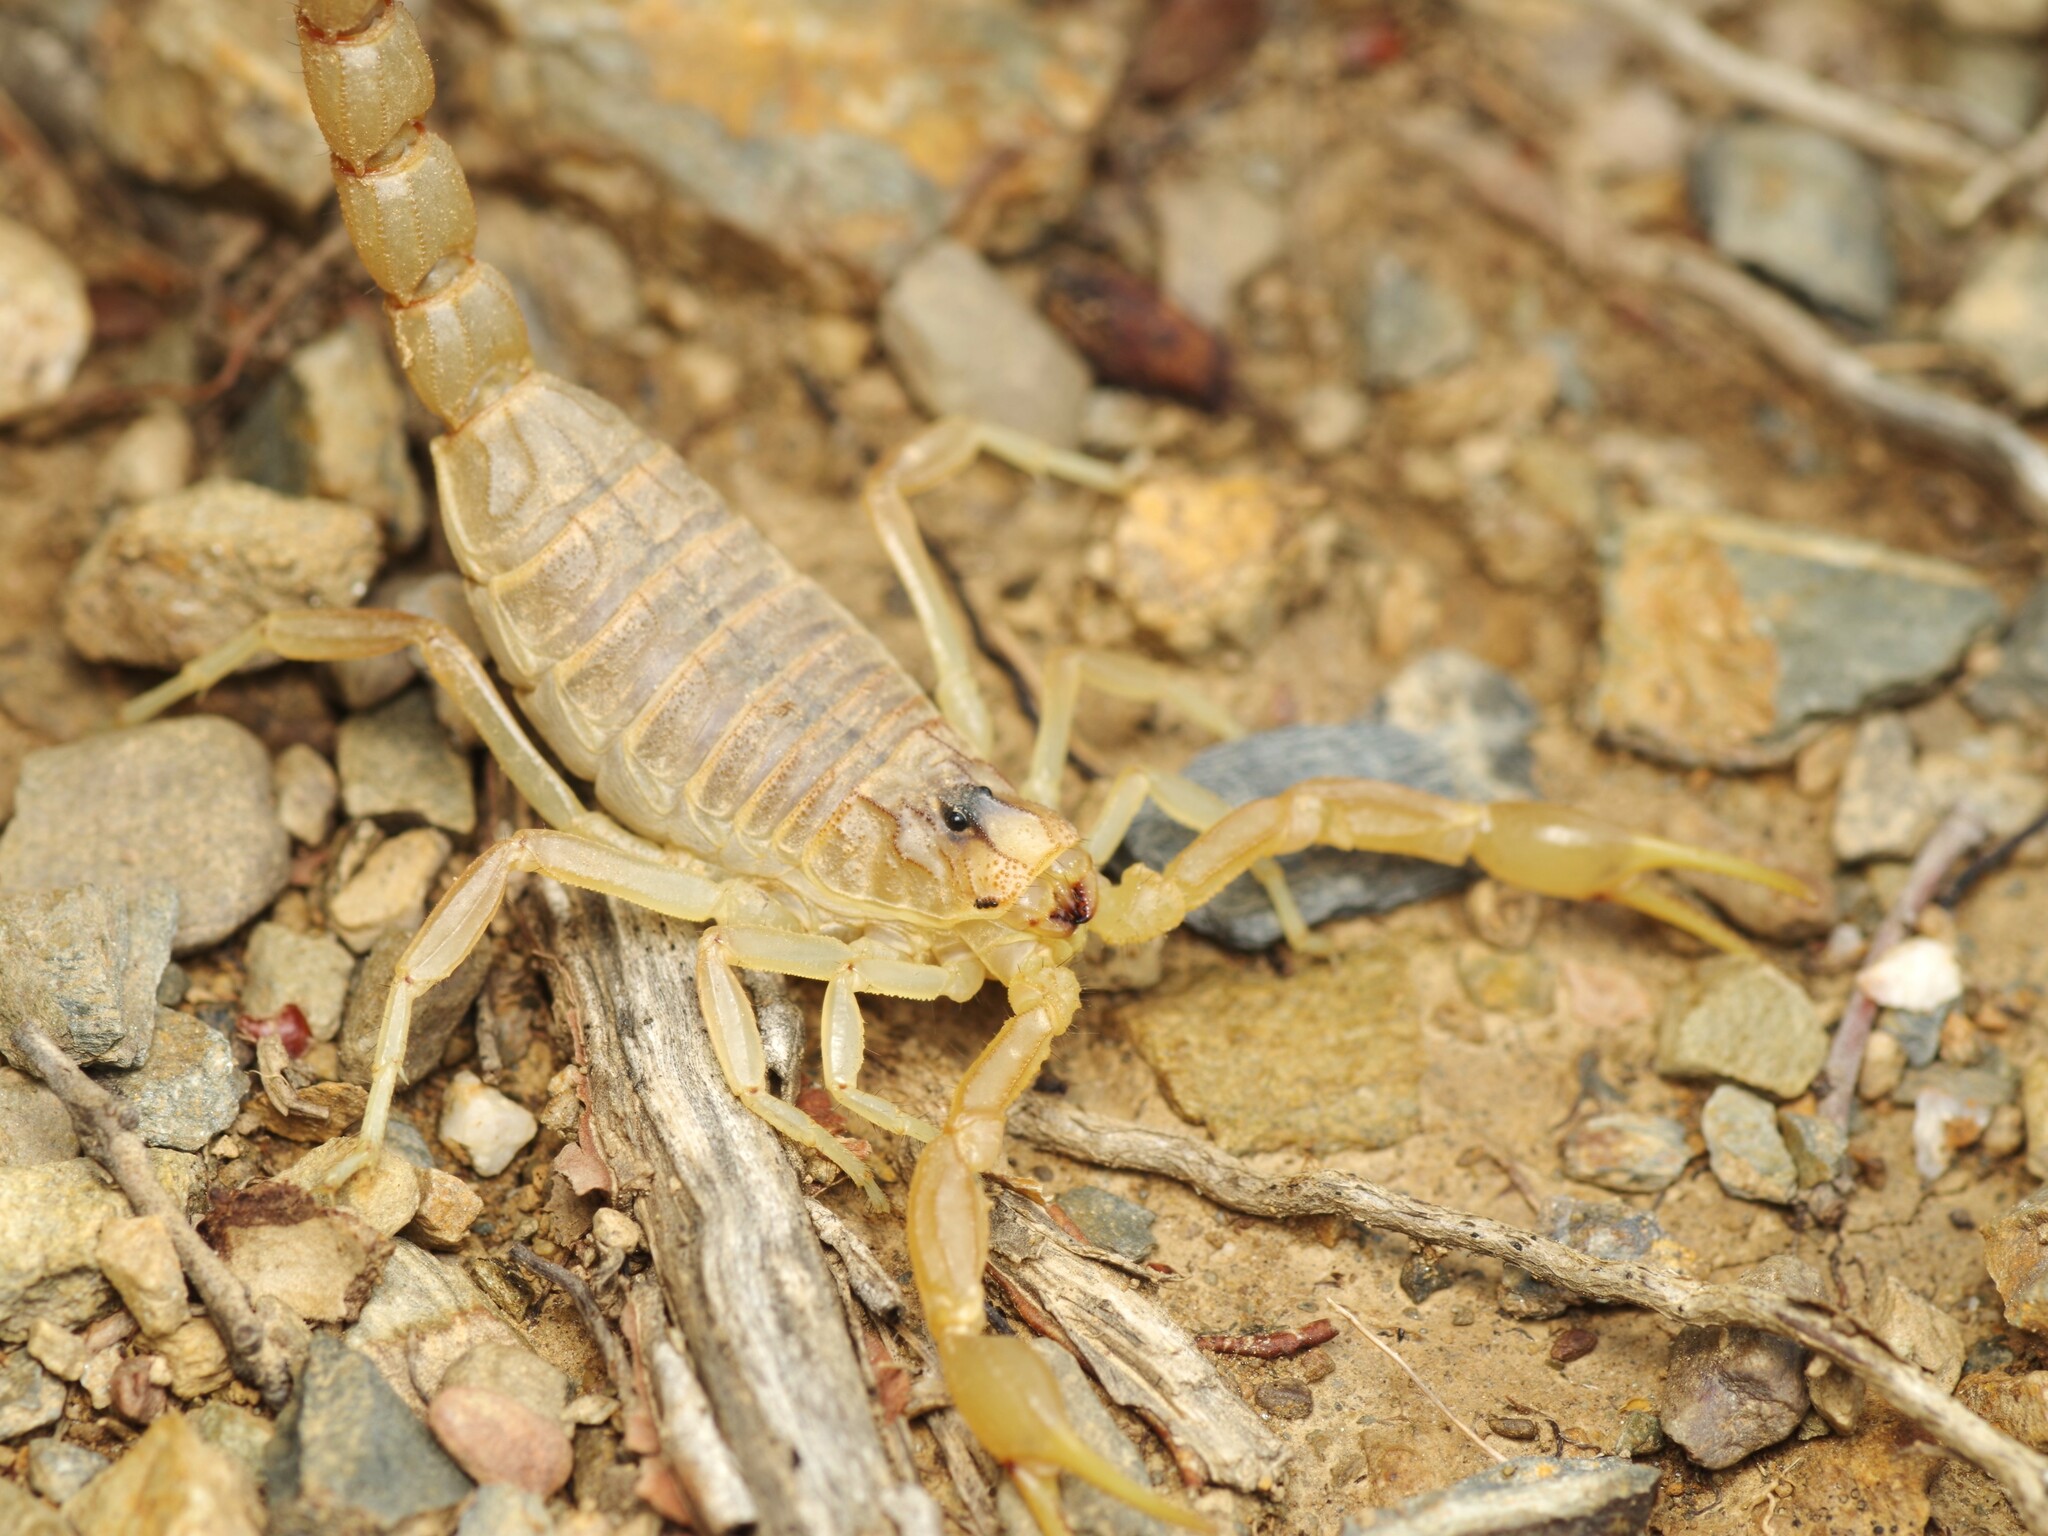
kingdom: Animalia
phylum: Arthropoda
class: Arachnida
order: Scorpiones
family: Buthidae
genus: Buthus
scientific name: Buthus pyrenaeus
